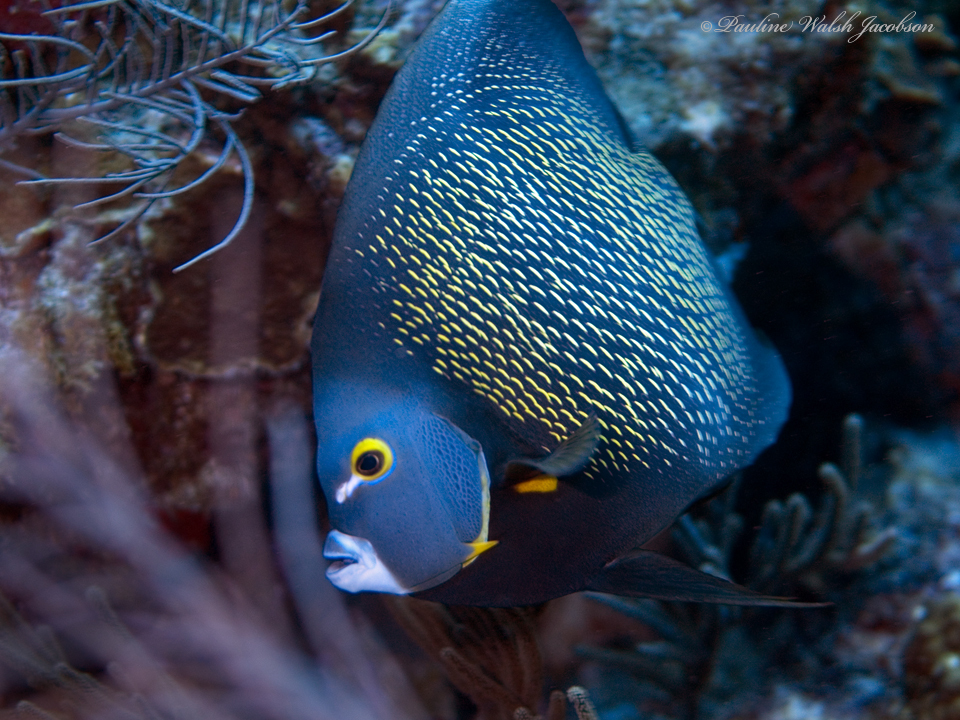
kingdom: Animalia
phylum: Chordata
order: Perciformes
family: Pomacanthidae
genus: Pomacanthus
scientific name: Pomacanthus paru
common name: French angelfish
